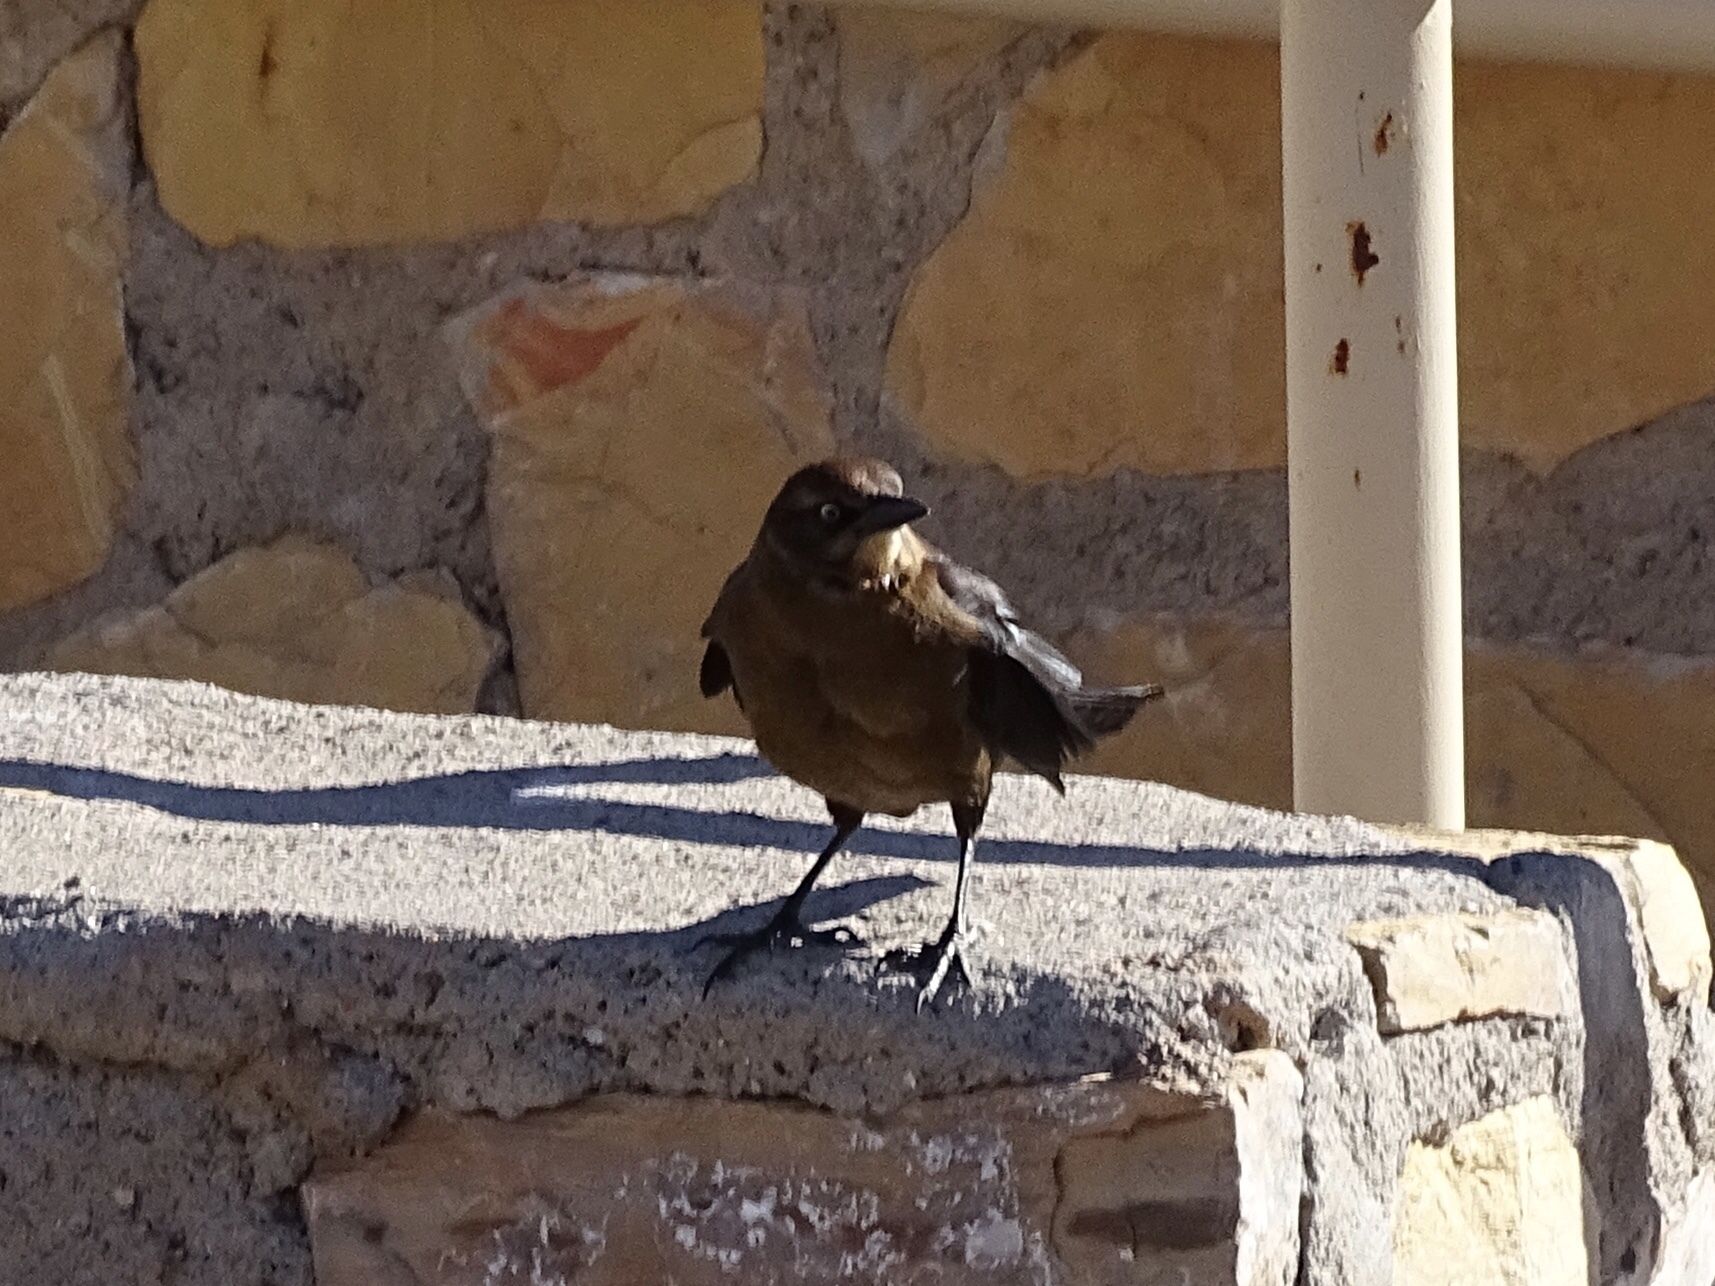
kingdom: Animalia
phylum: Chordata
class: Aves
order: Passeriformes
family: Icteridae
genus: Quiscalus
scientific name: Quiscalus mexicanus
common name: Great-tailed grackle
